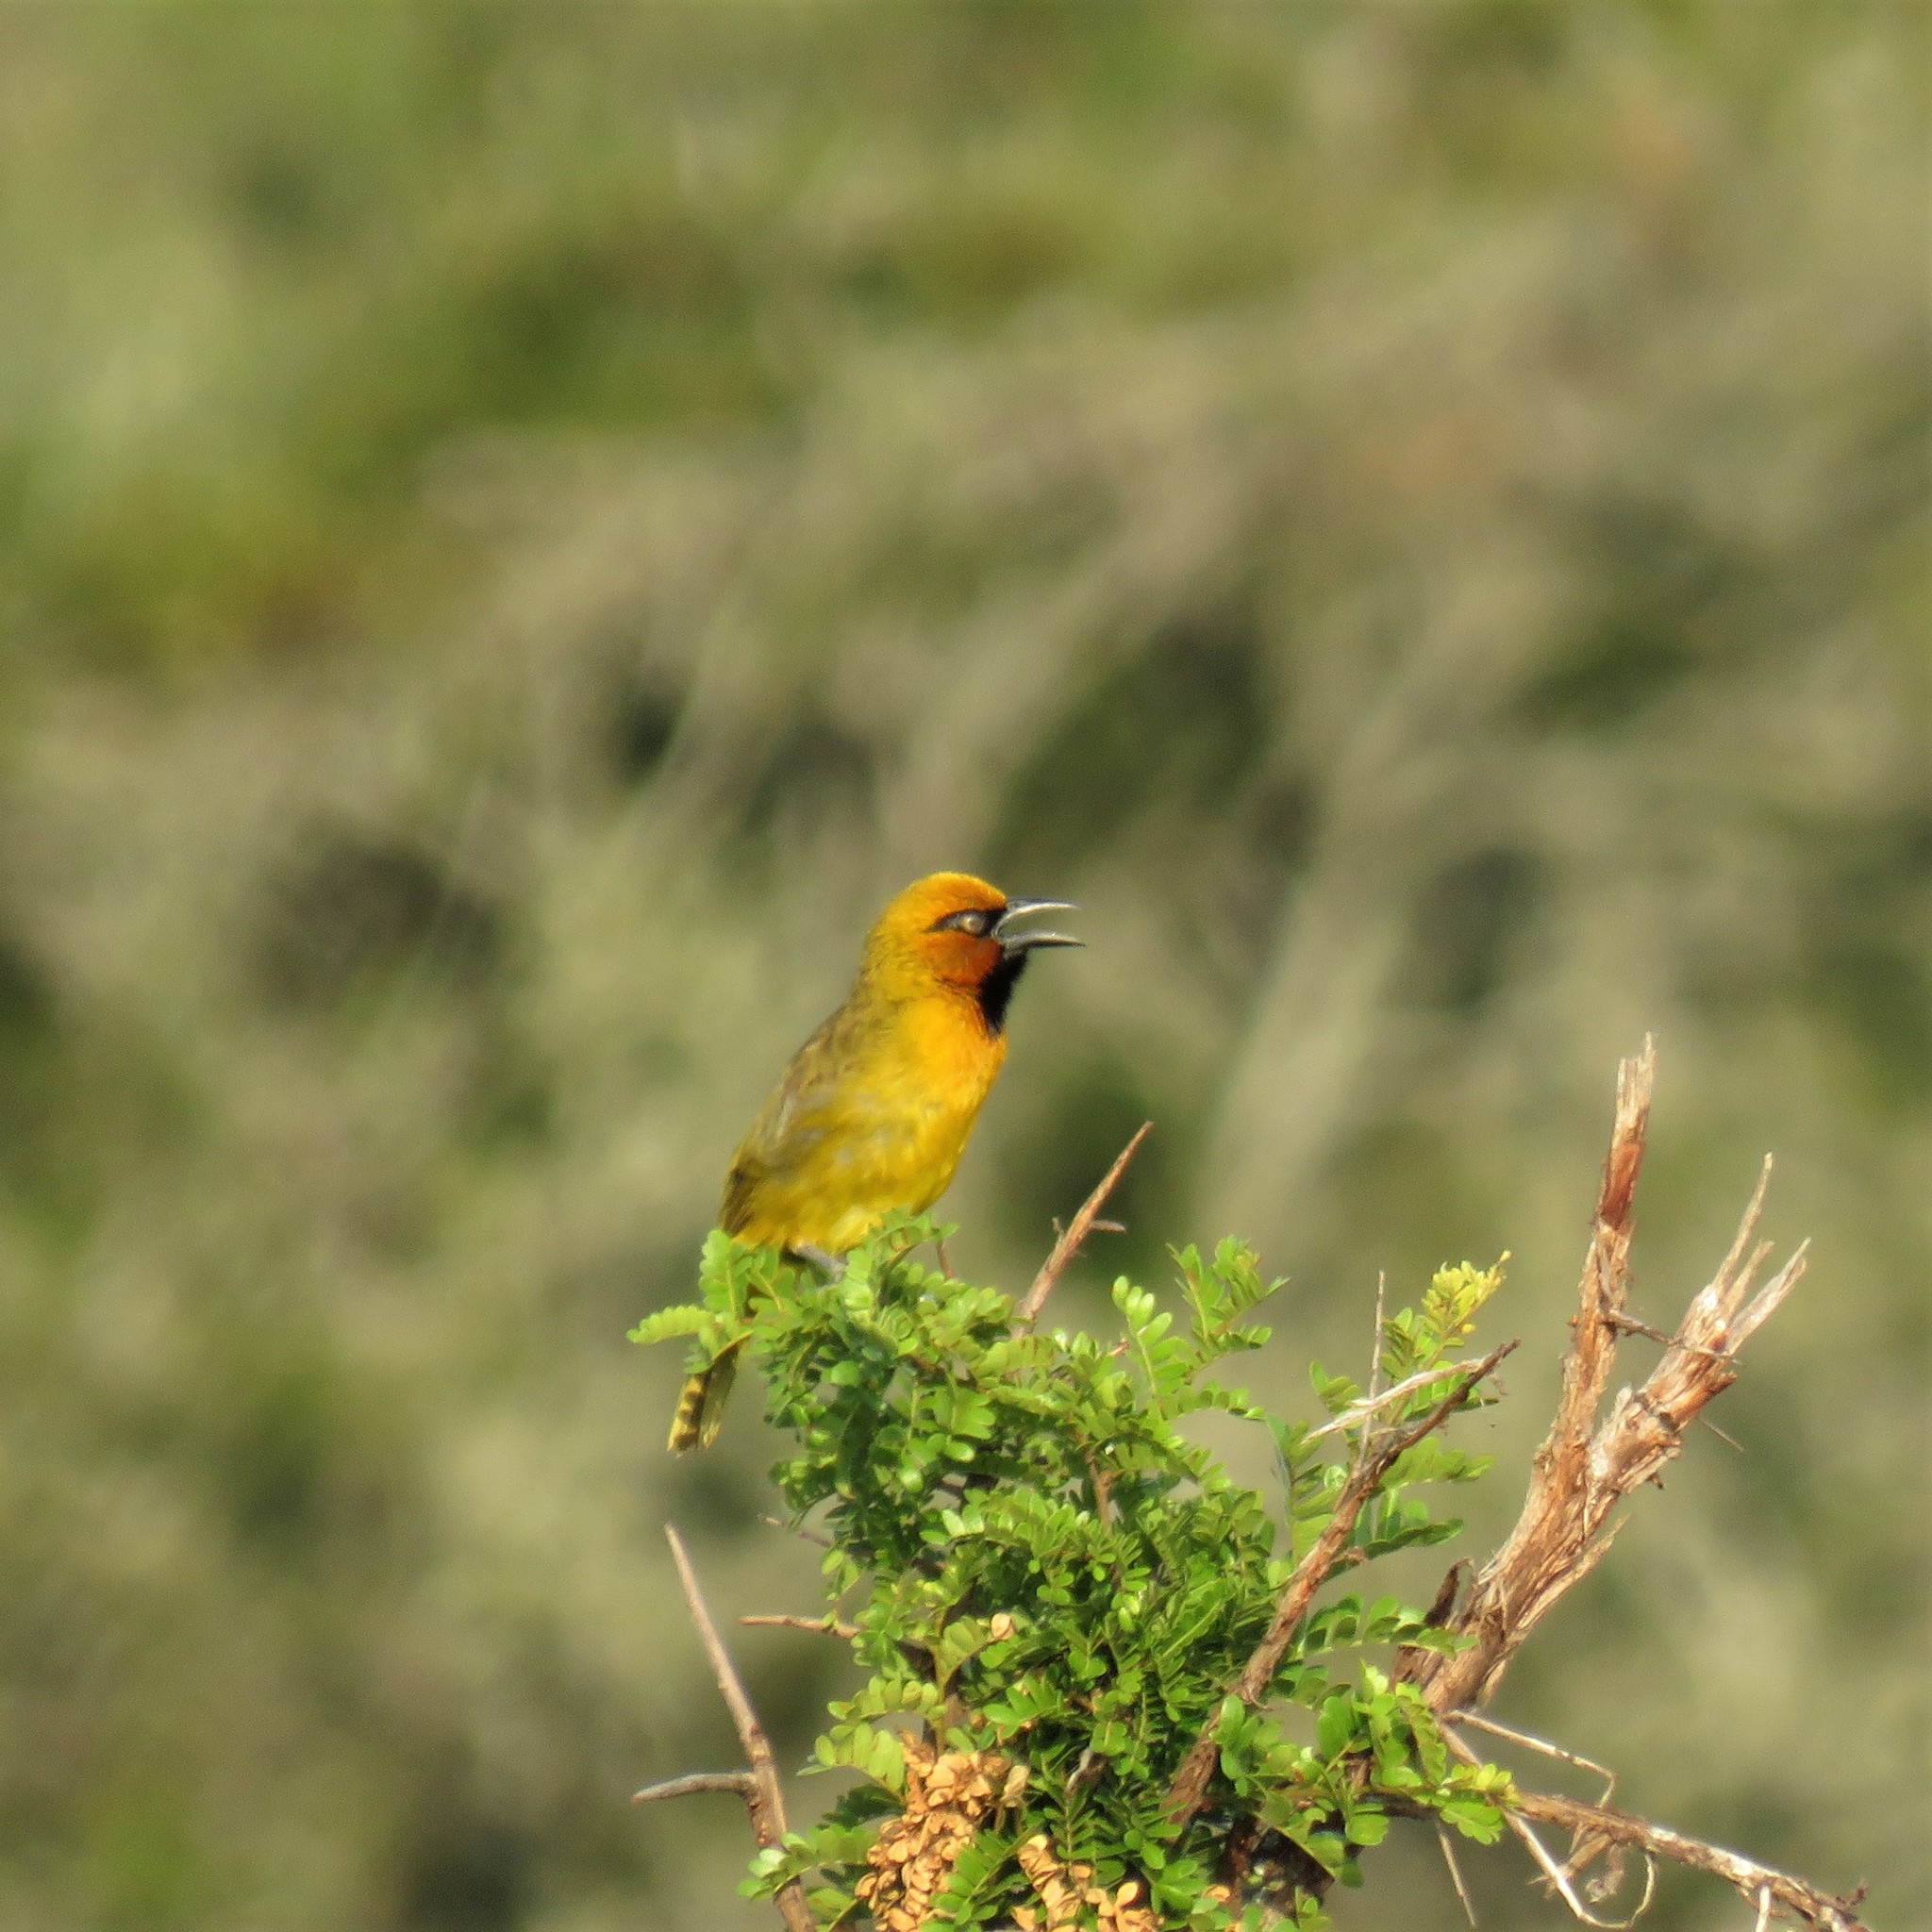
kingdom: Animalia
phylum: Chordata
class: Aves
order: Passeriformes
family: Ploceidae
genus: Ploceus
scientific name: Ploceus ocularis
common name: Spectacled weaver
